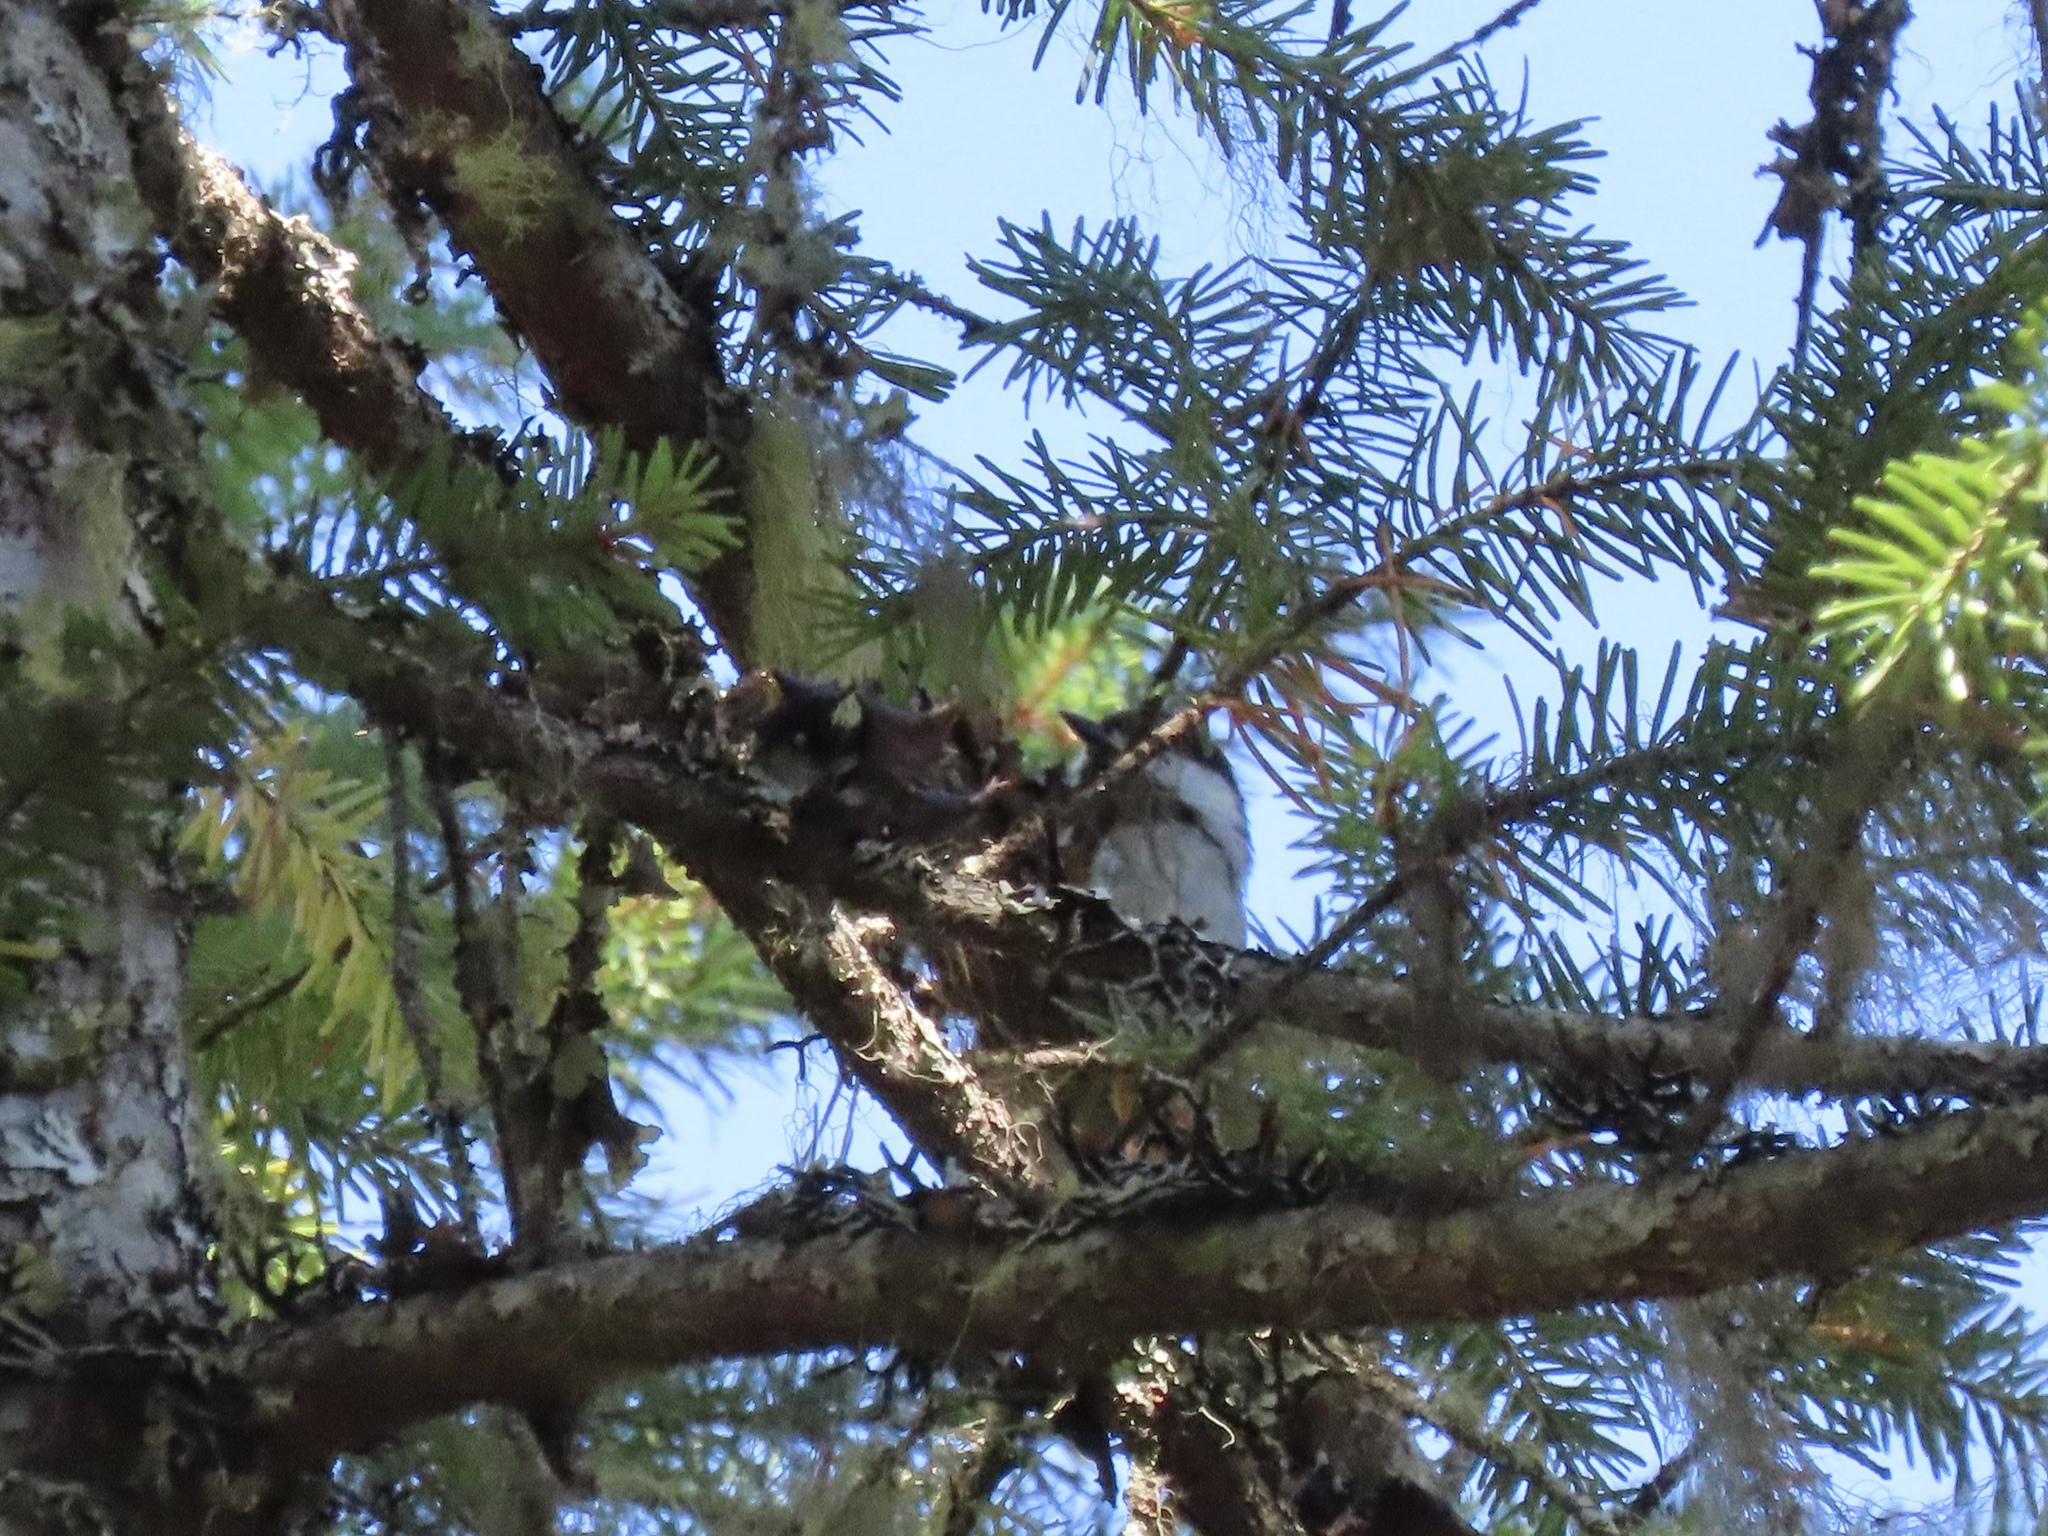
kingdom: Animalia
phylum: Chordata
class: Aves
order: Passeriformes
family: Paridae
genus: Poecile
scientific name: Poecile rufescens
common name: Chestnut-backed chickadee
